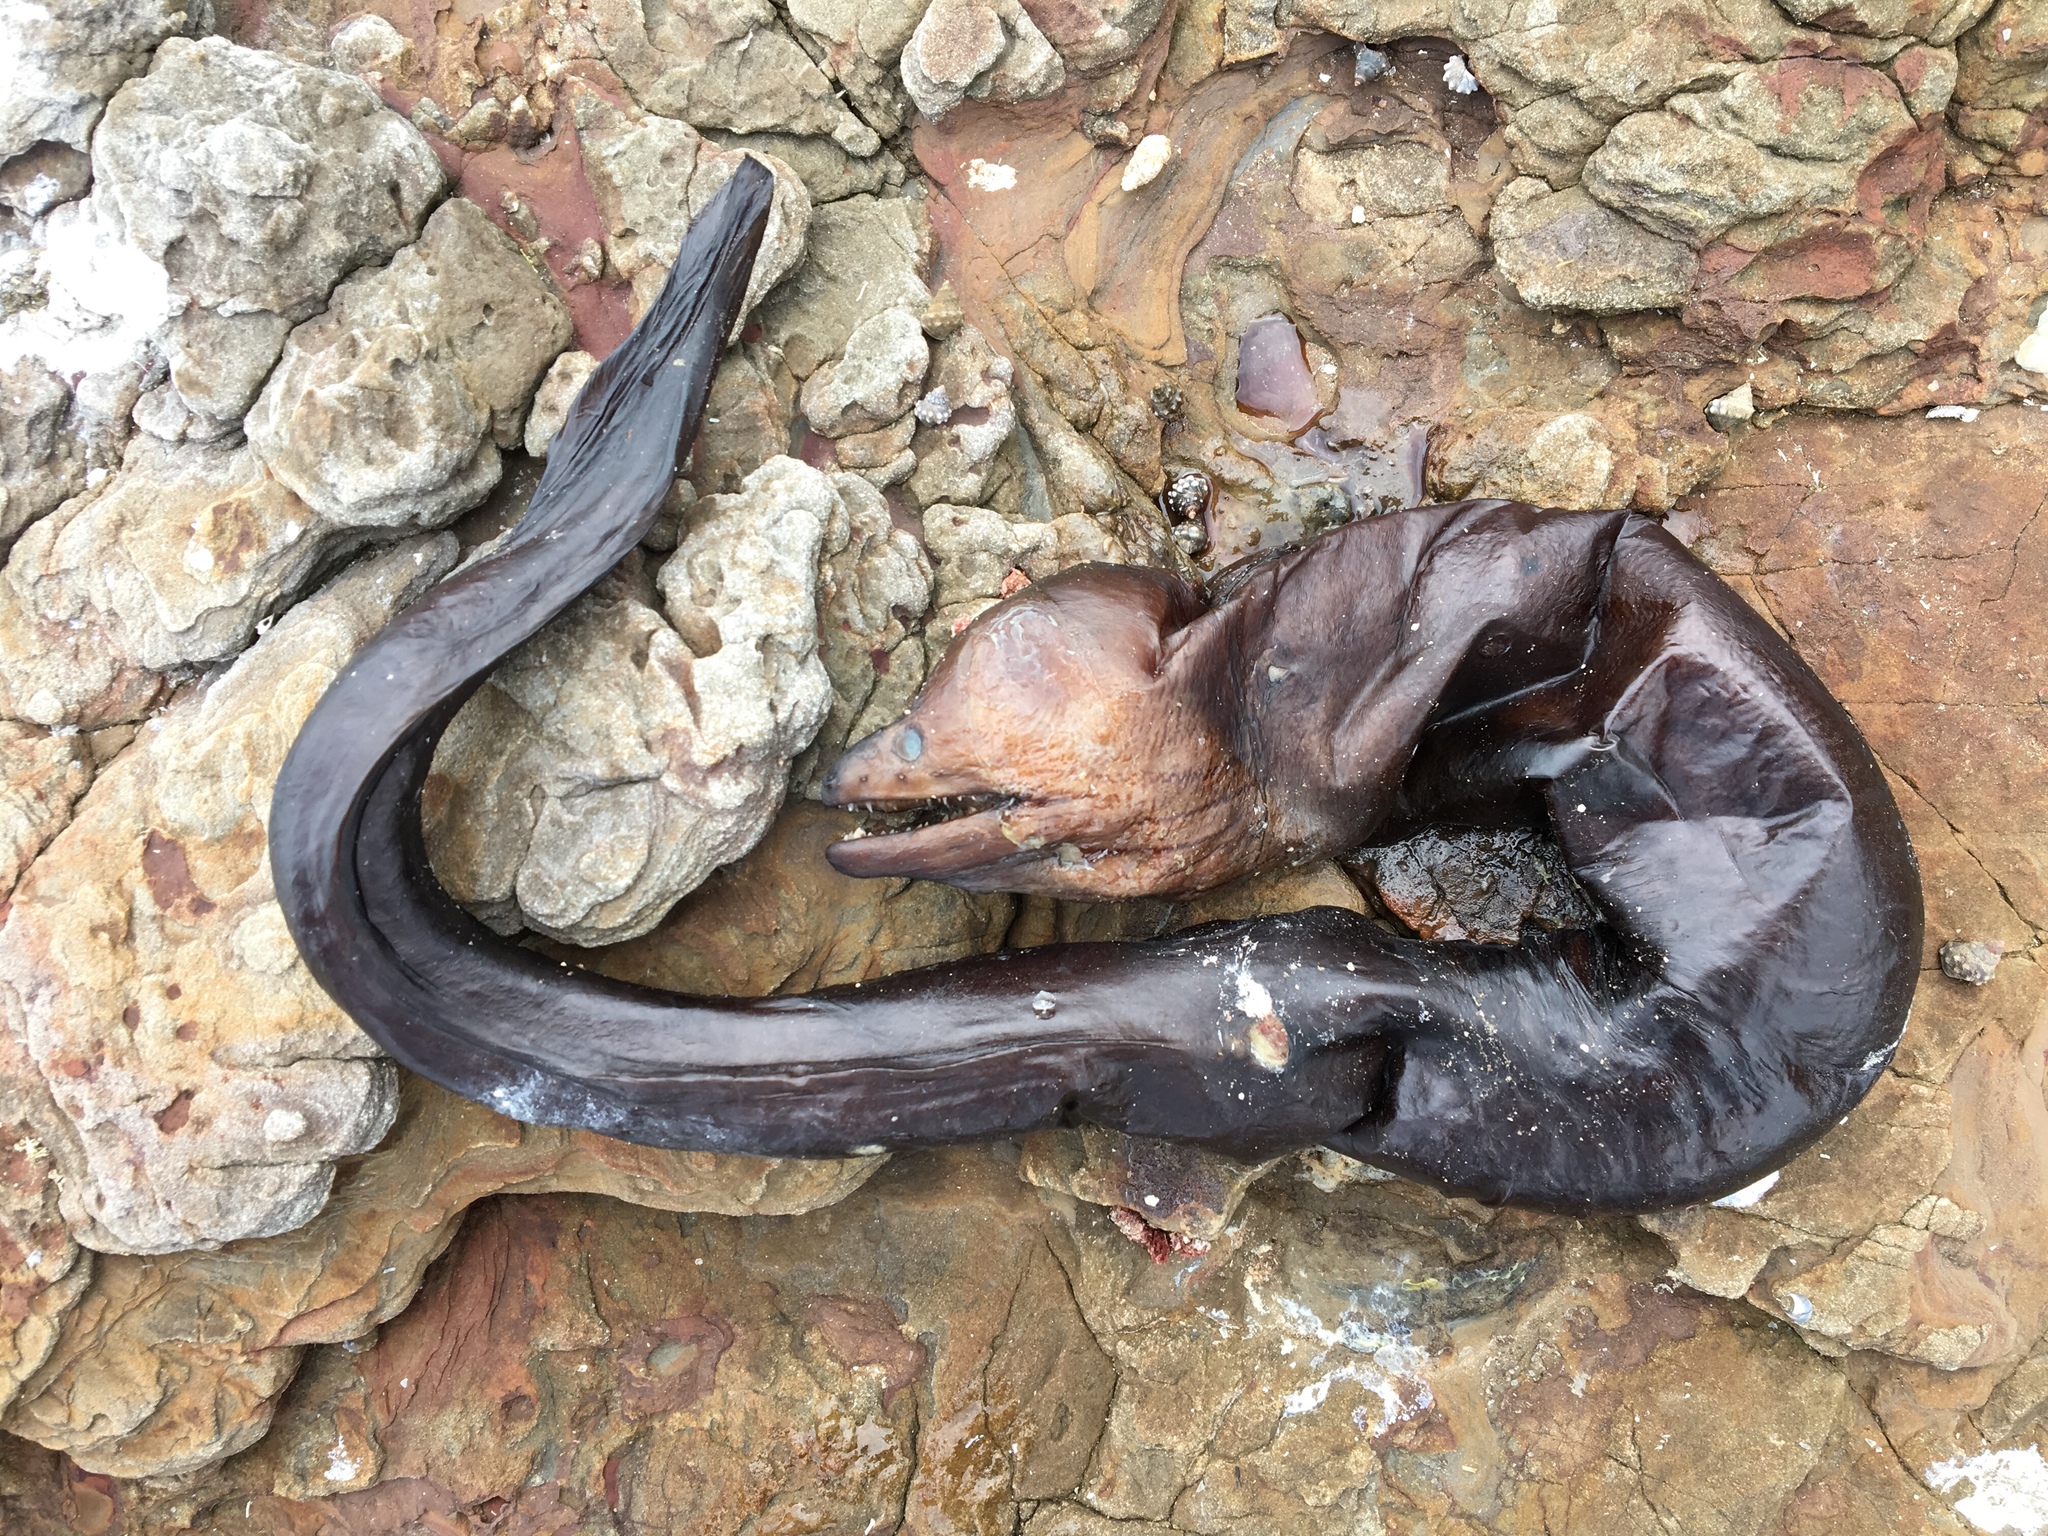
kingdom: Animalia
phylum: Chordata
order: Anguilliformes
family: Muraenidae
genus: Gymnothorax
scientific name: Gymnothorax prasinus
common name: Yellow moray
